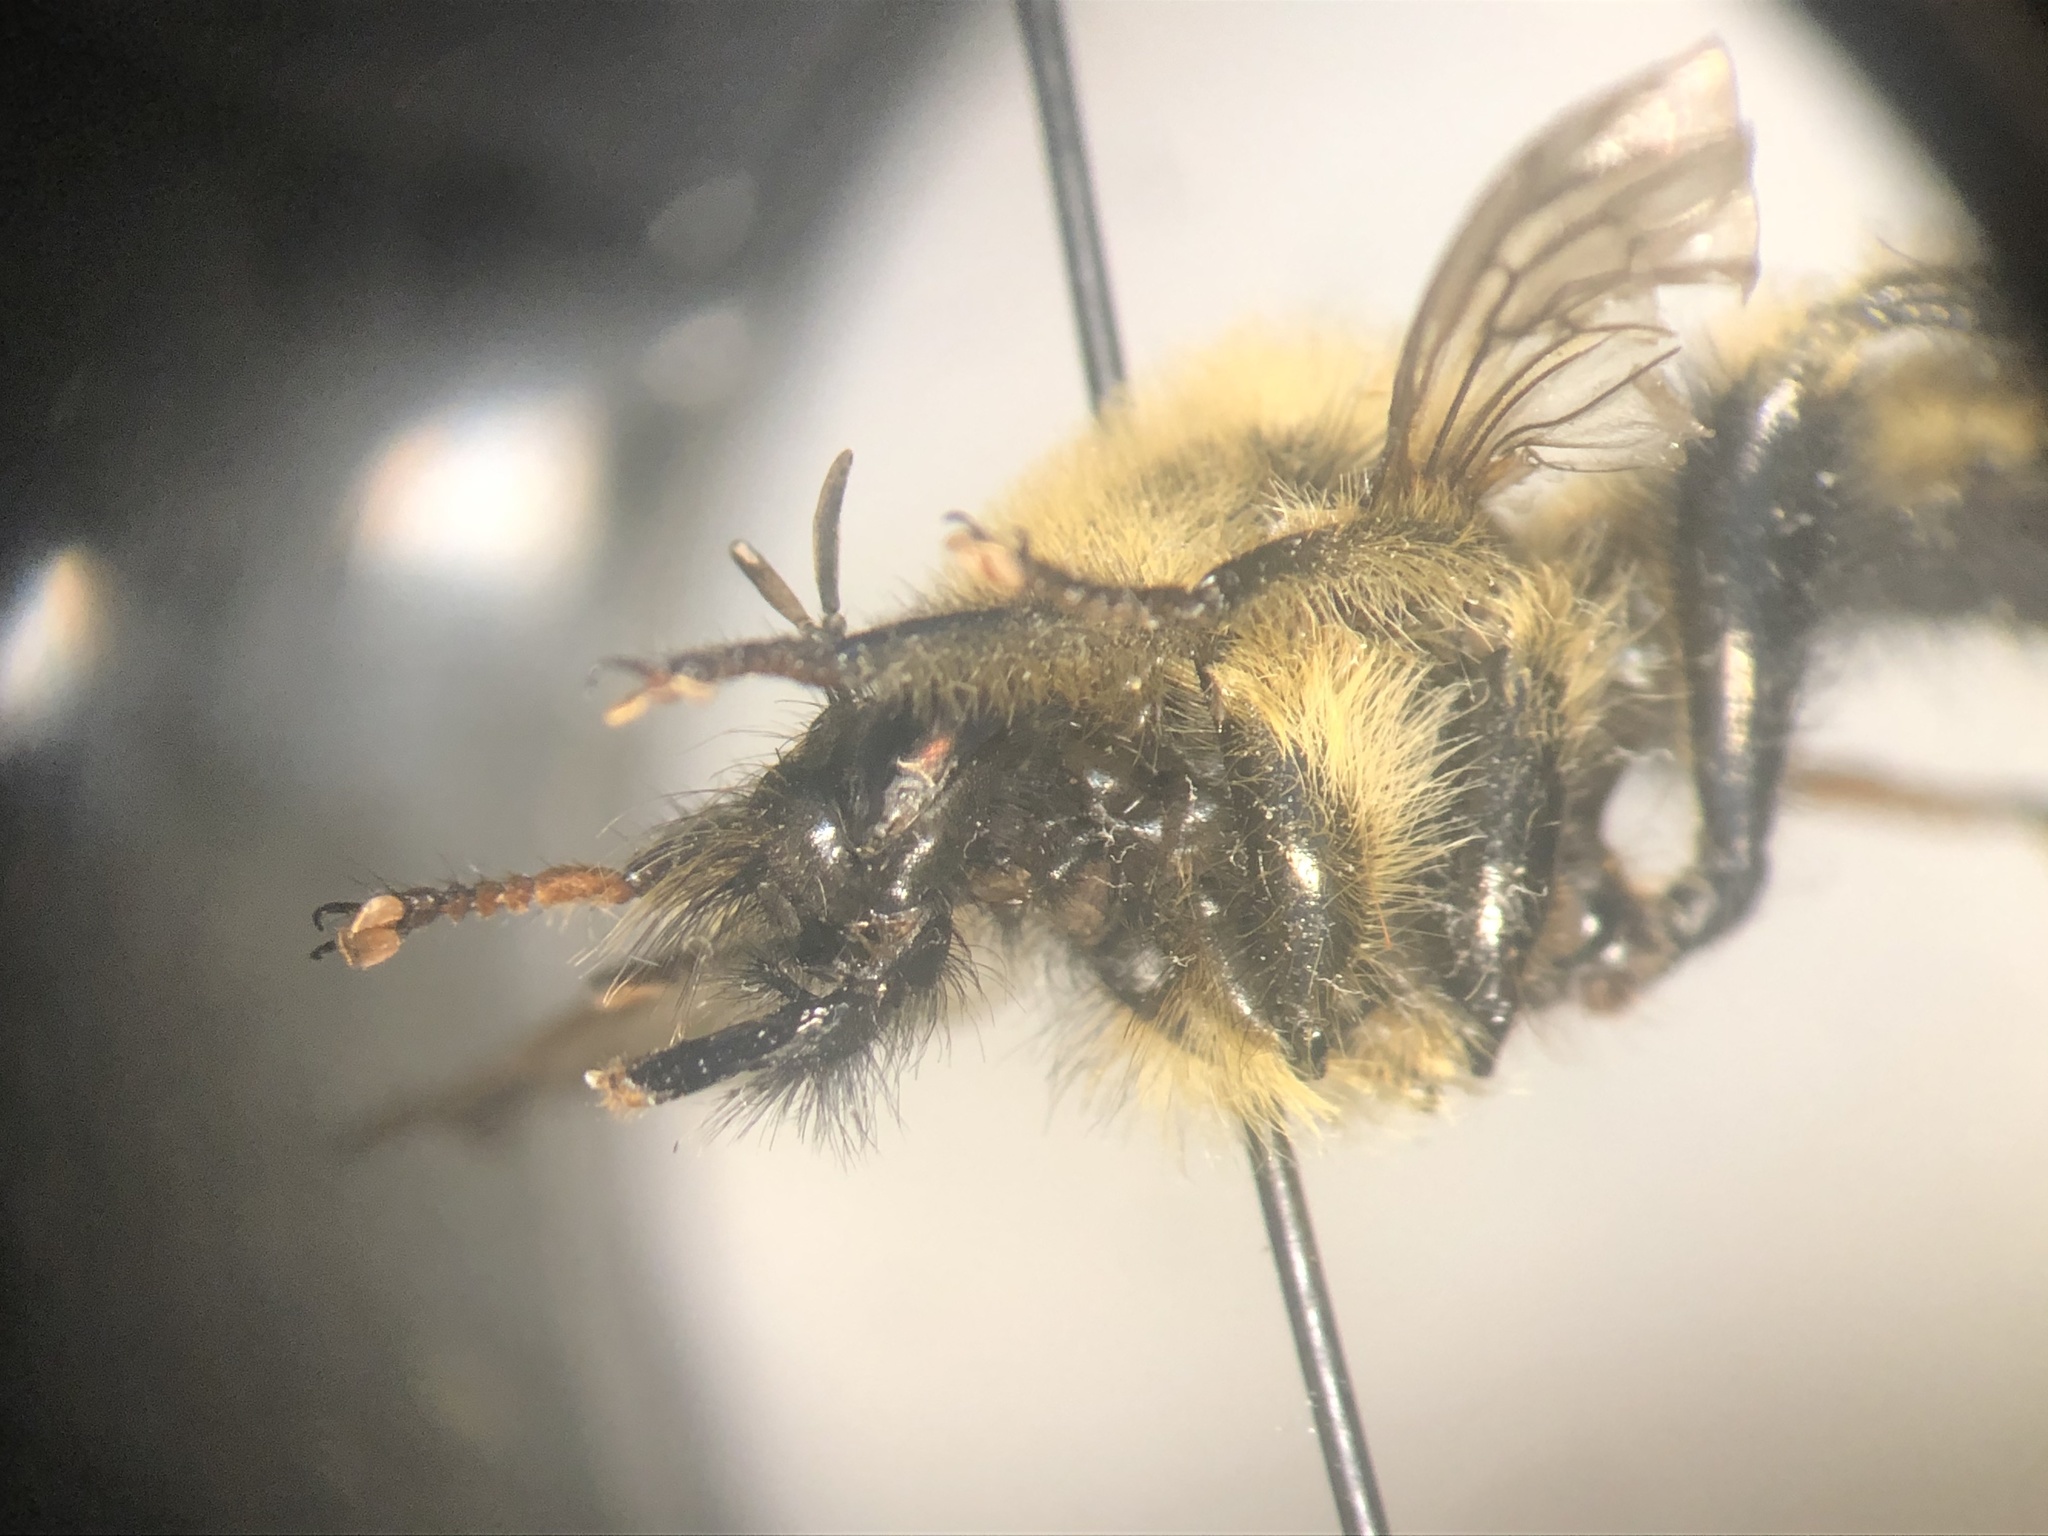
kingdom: Animalia
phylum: Arthropoda
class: Insecta
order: Diptera
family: Asilidae
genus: Laphria
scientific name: Laphria sacrator
